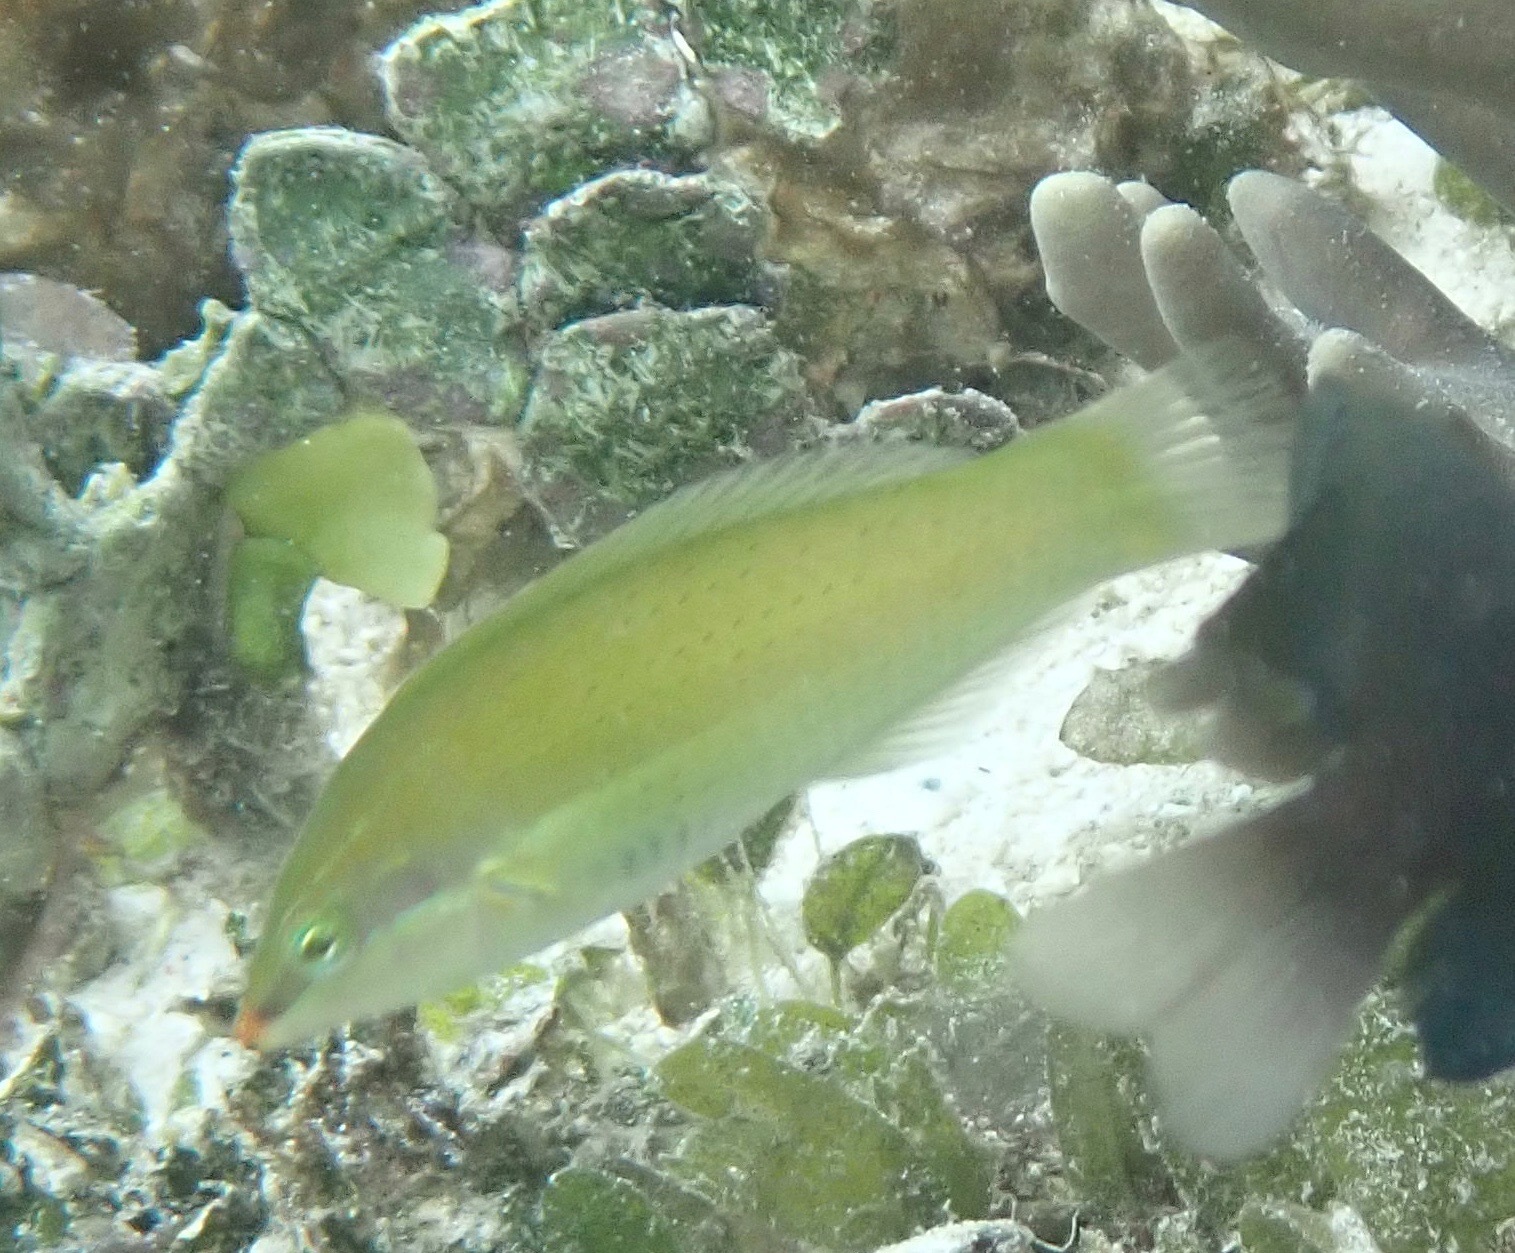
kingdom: Animalia
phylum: Chordata
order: Perciformes
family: Labridae
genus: Halichoeres
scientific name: Halichoeres chloropterus
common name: Pastel-green wrasse
